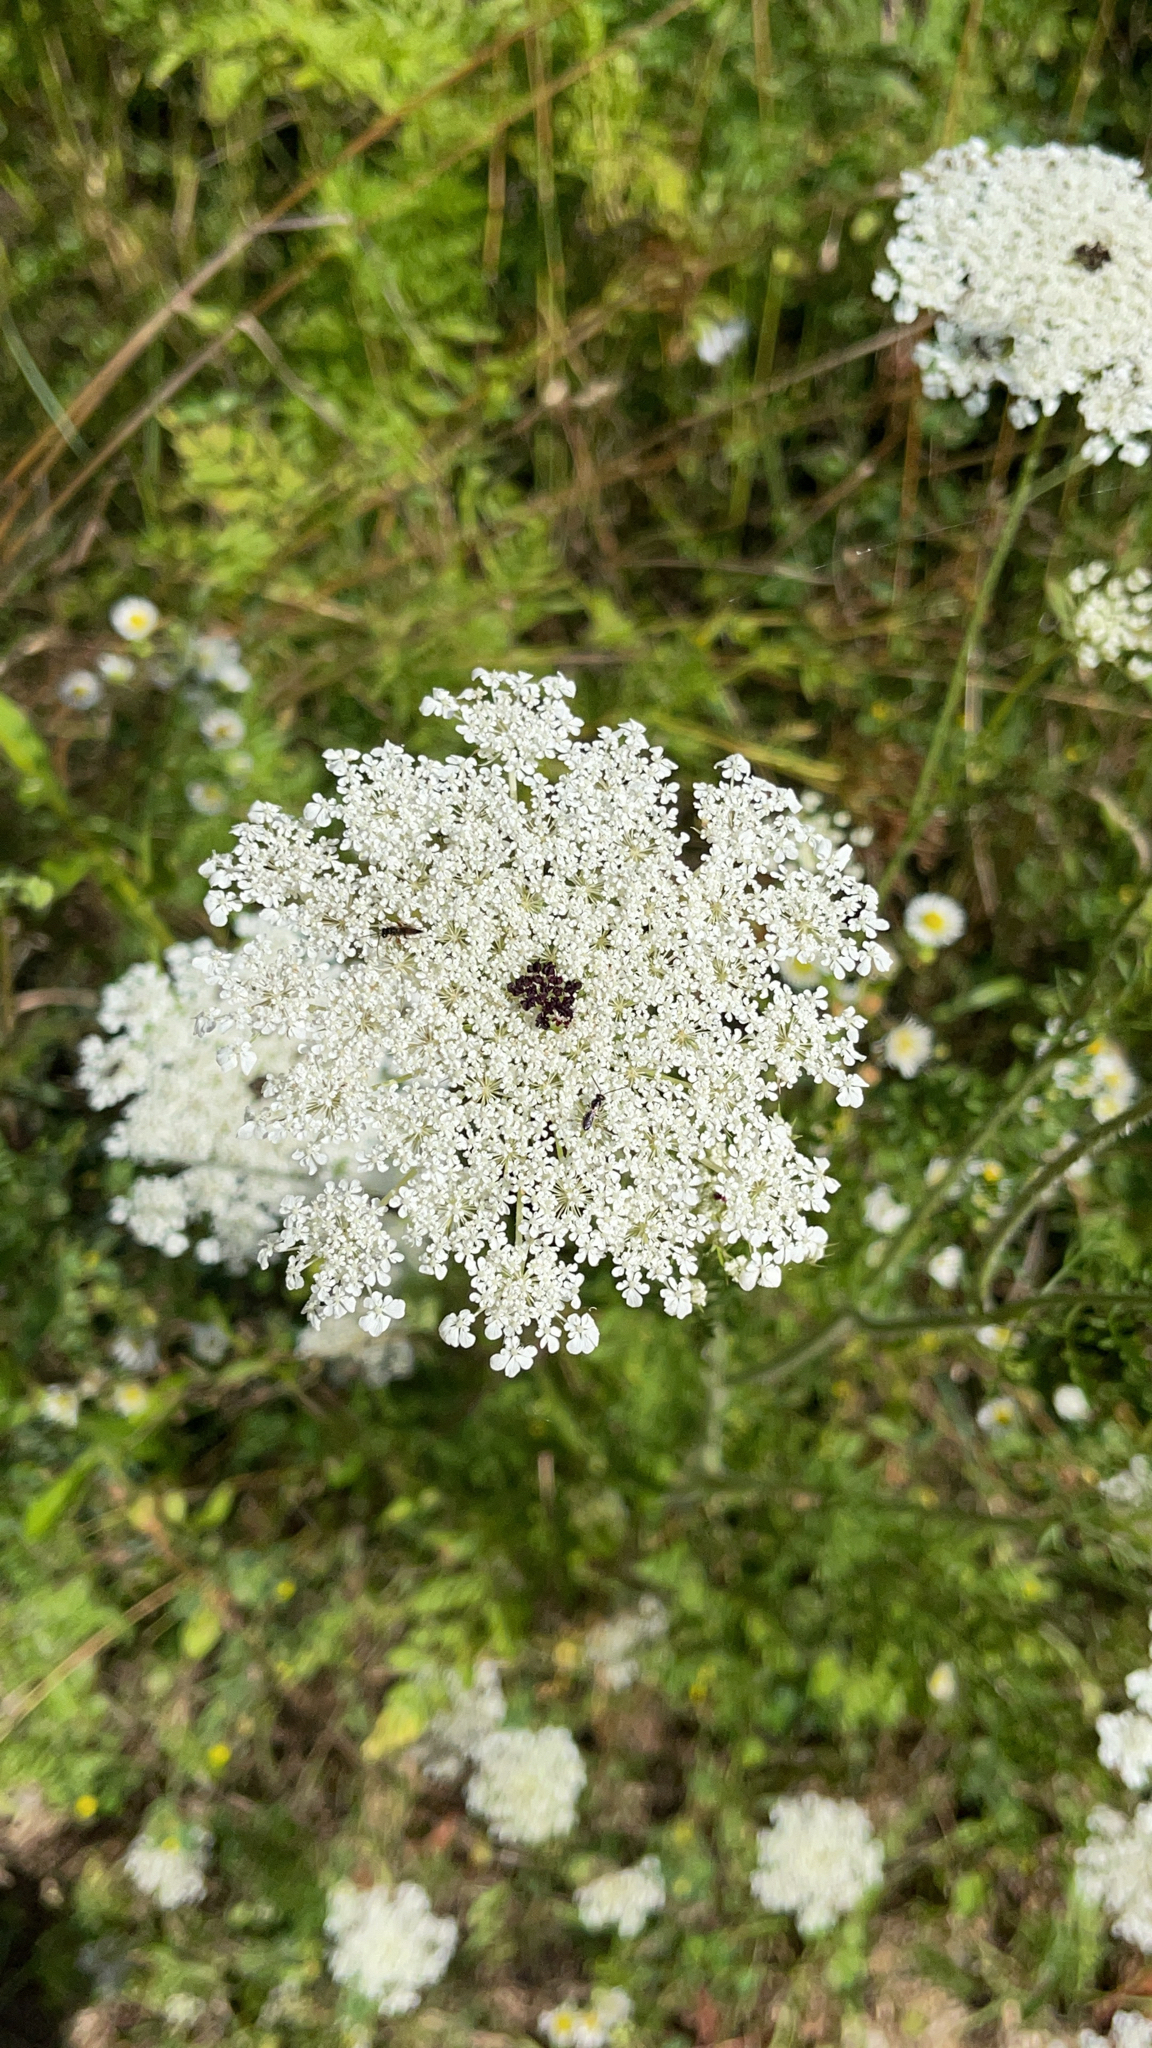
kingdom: Plantae
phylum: Tracheophyta
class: Magnoliopsida
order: Apiales
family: Apiaceae
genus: Daucus
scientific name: Daucus carota
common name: Wild carrot
